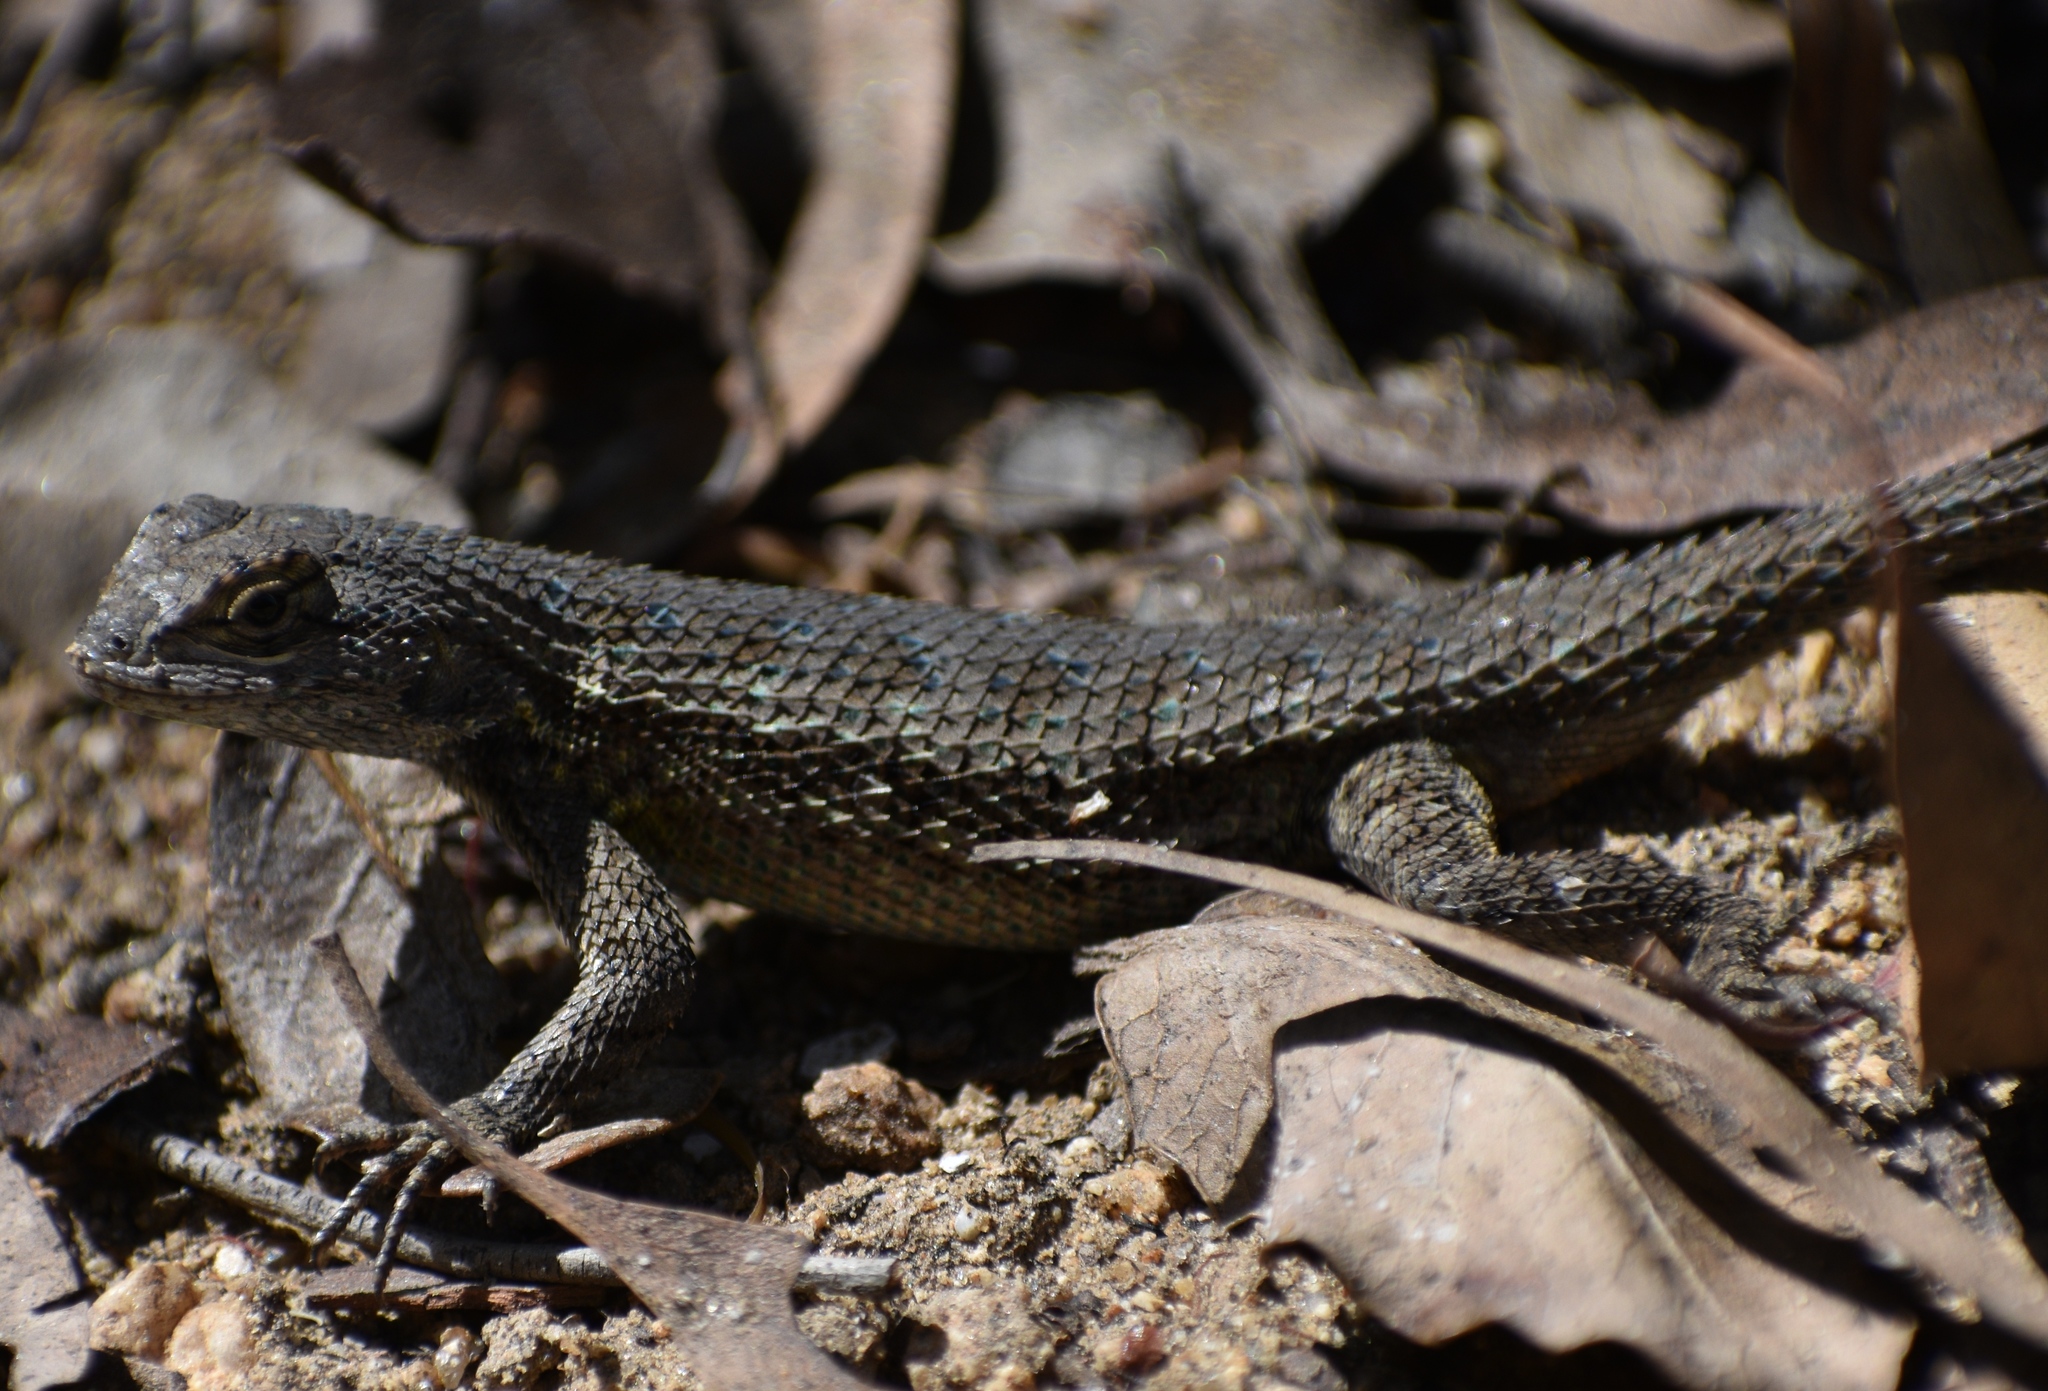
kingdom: Animalia
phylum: Chordata
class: Squamata
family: Phrynosomatidae
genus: Sceloporus
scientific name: Sceloporus occidentalis
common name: Western fence lizard
